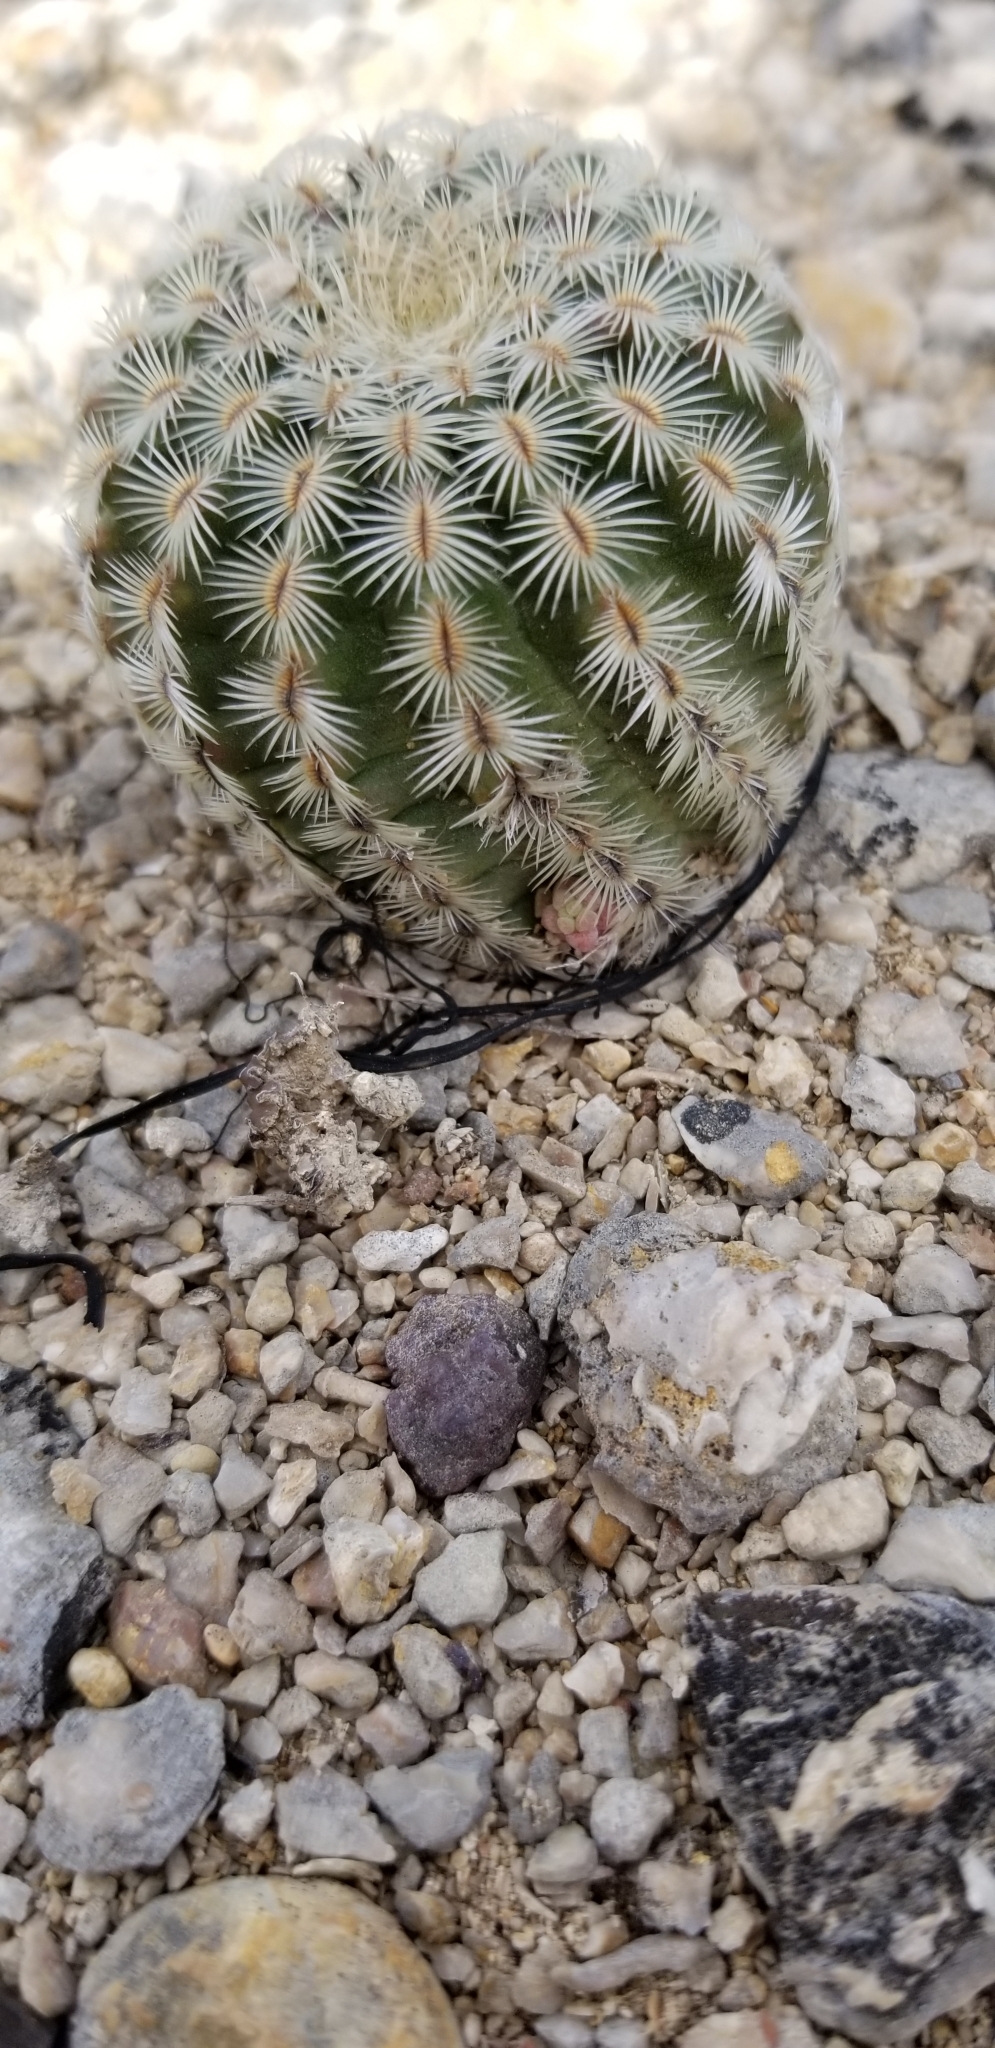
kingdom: Plantae
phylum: Tracheophyta
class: Magnoliopsida
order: Caryophyllales
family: Cactaceae
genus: Echinocereus
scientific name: Echinocereus reichenbachii
